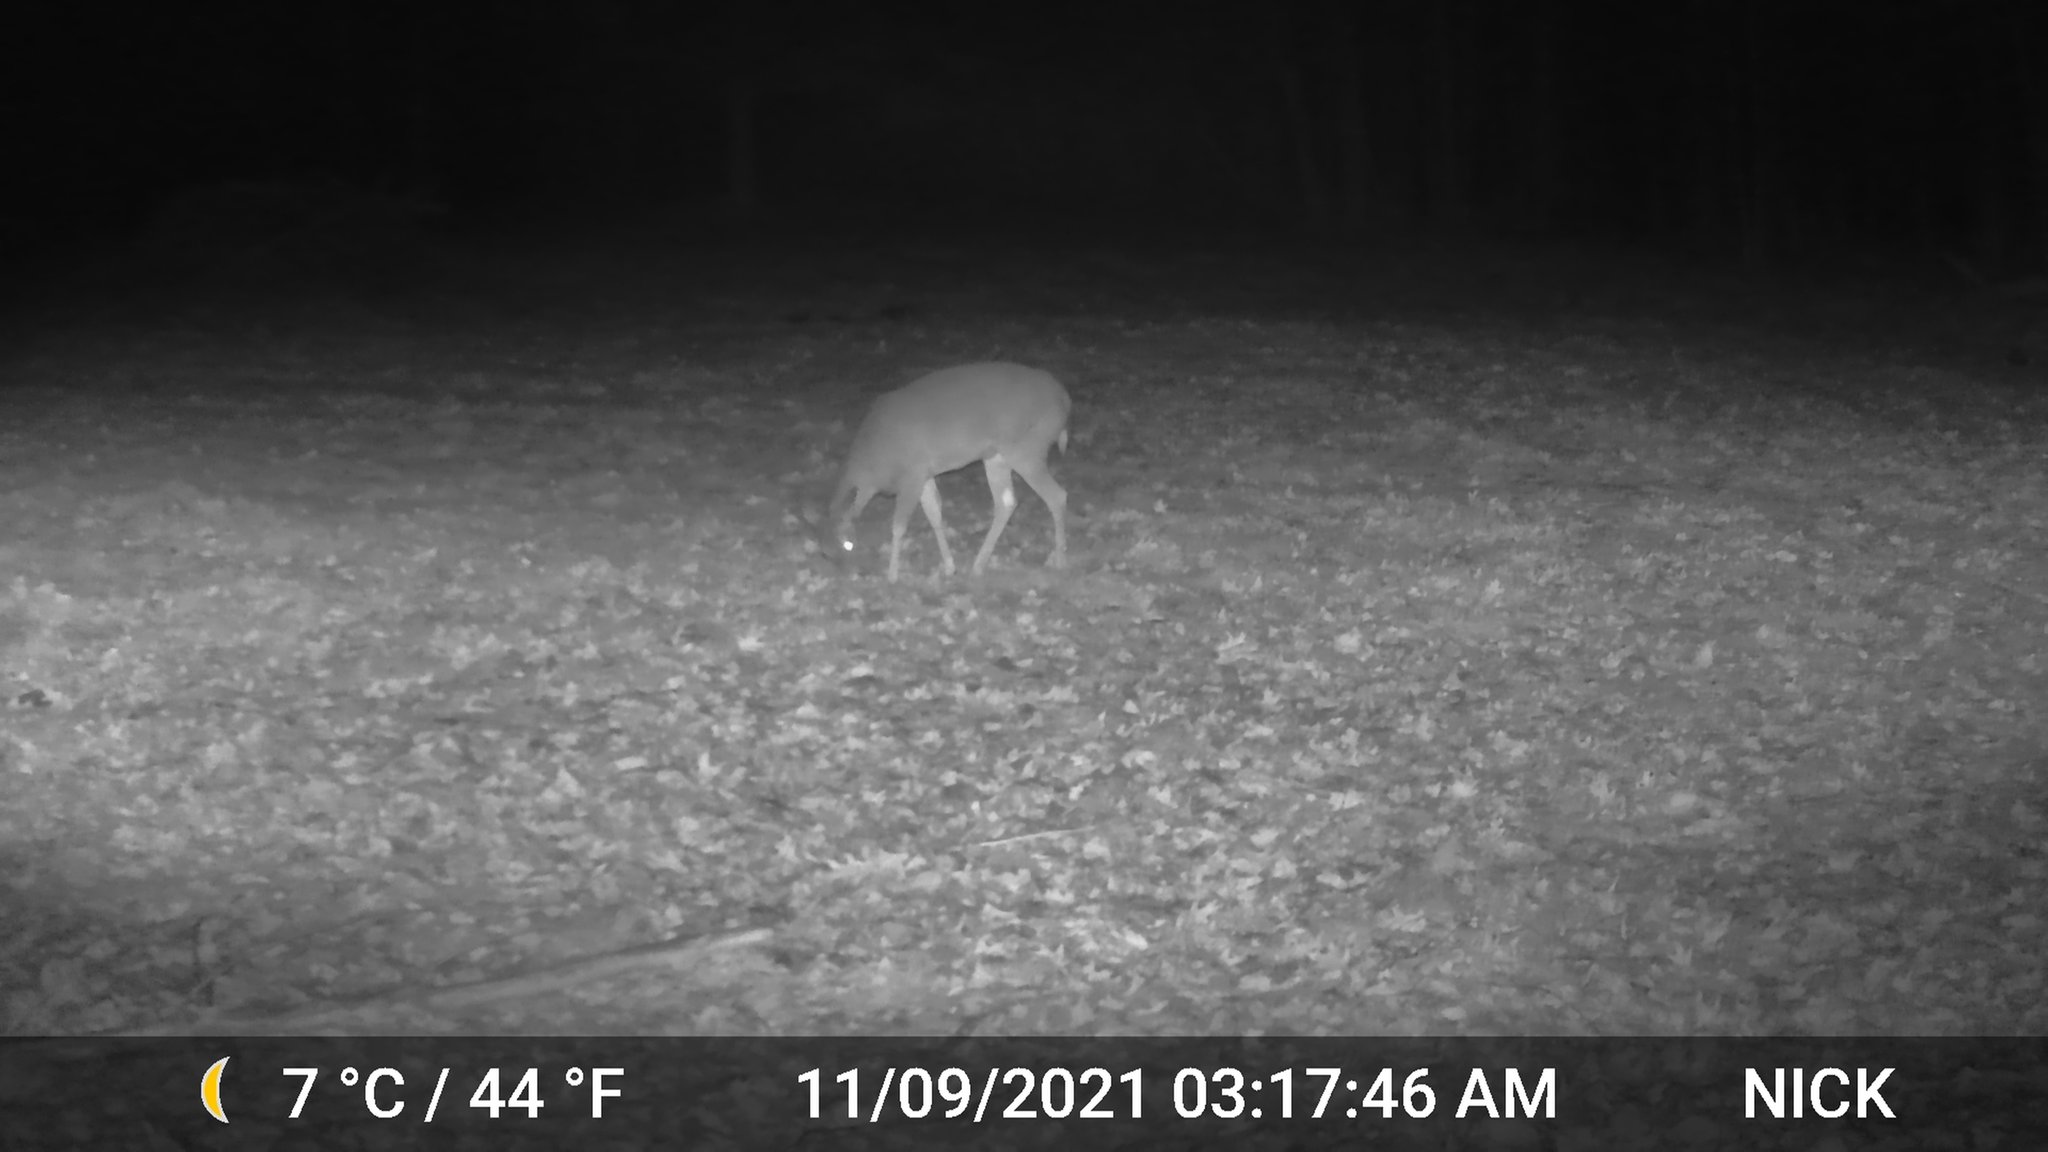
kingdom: Animalia
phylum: Chordata
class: Mammalia
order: Artiodactyla
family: Cervidae
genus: Odocoileus
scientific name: Odocoileus virginianus
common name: White-tailed deer
